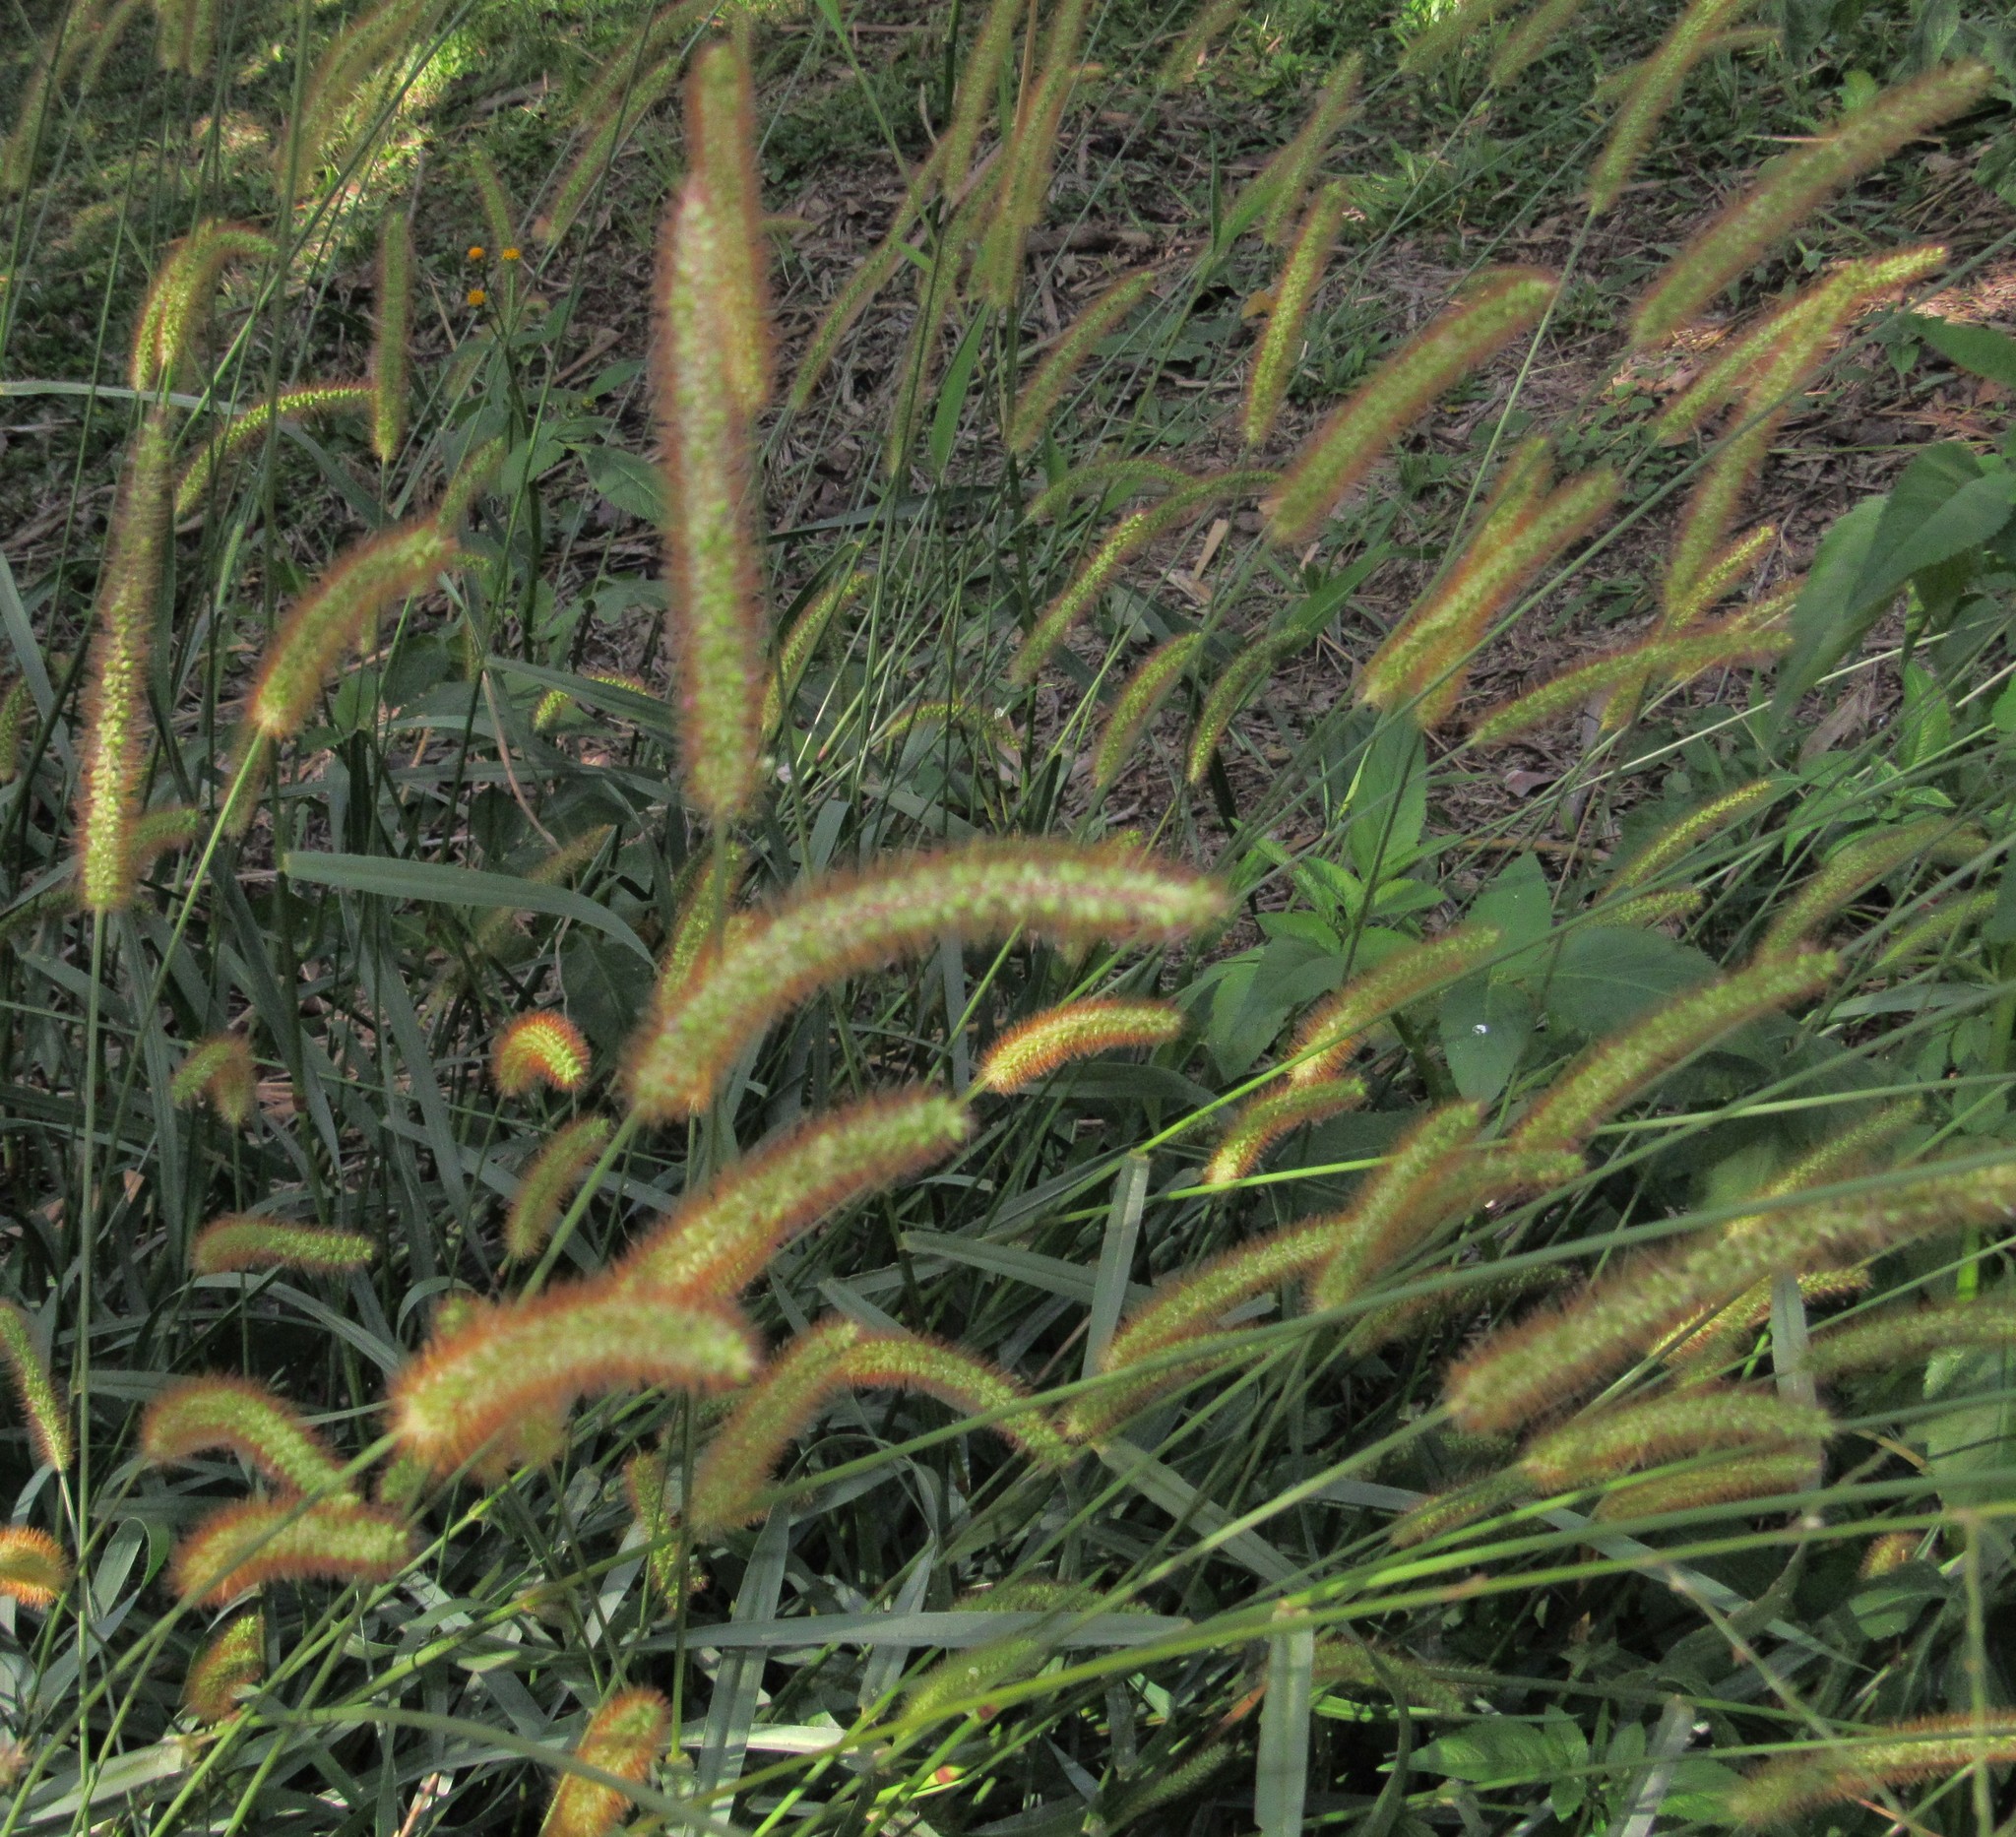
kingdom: Plantae
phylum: Tracheophyta
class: Liliopsida
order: Poales
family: Poaceae
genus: Setaria
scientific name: Setaria parviflora
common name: Knotroot bristle-grass
